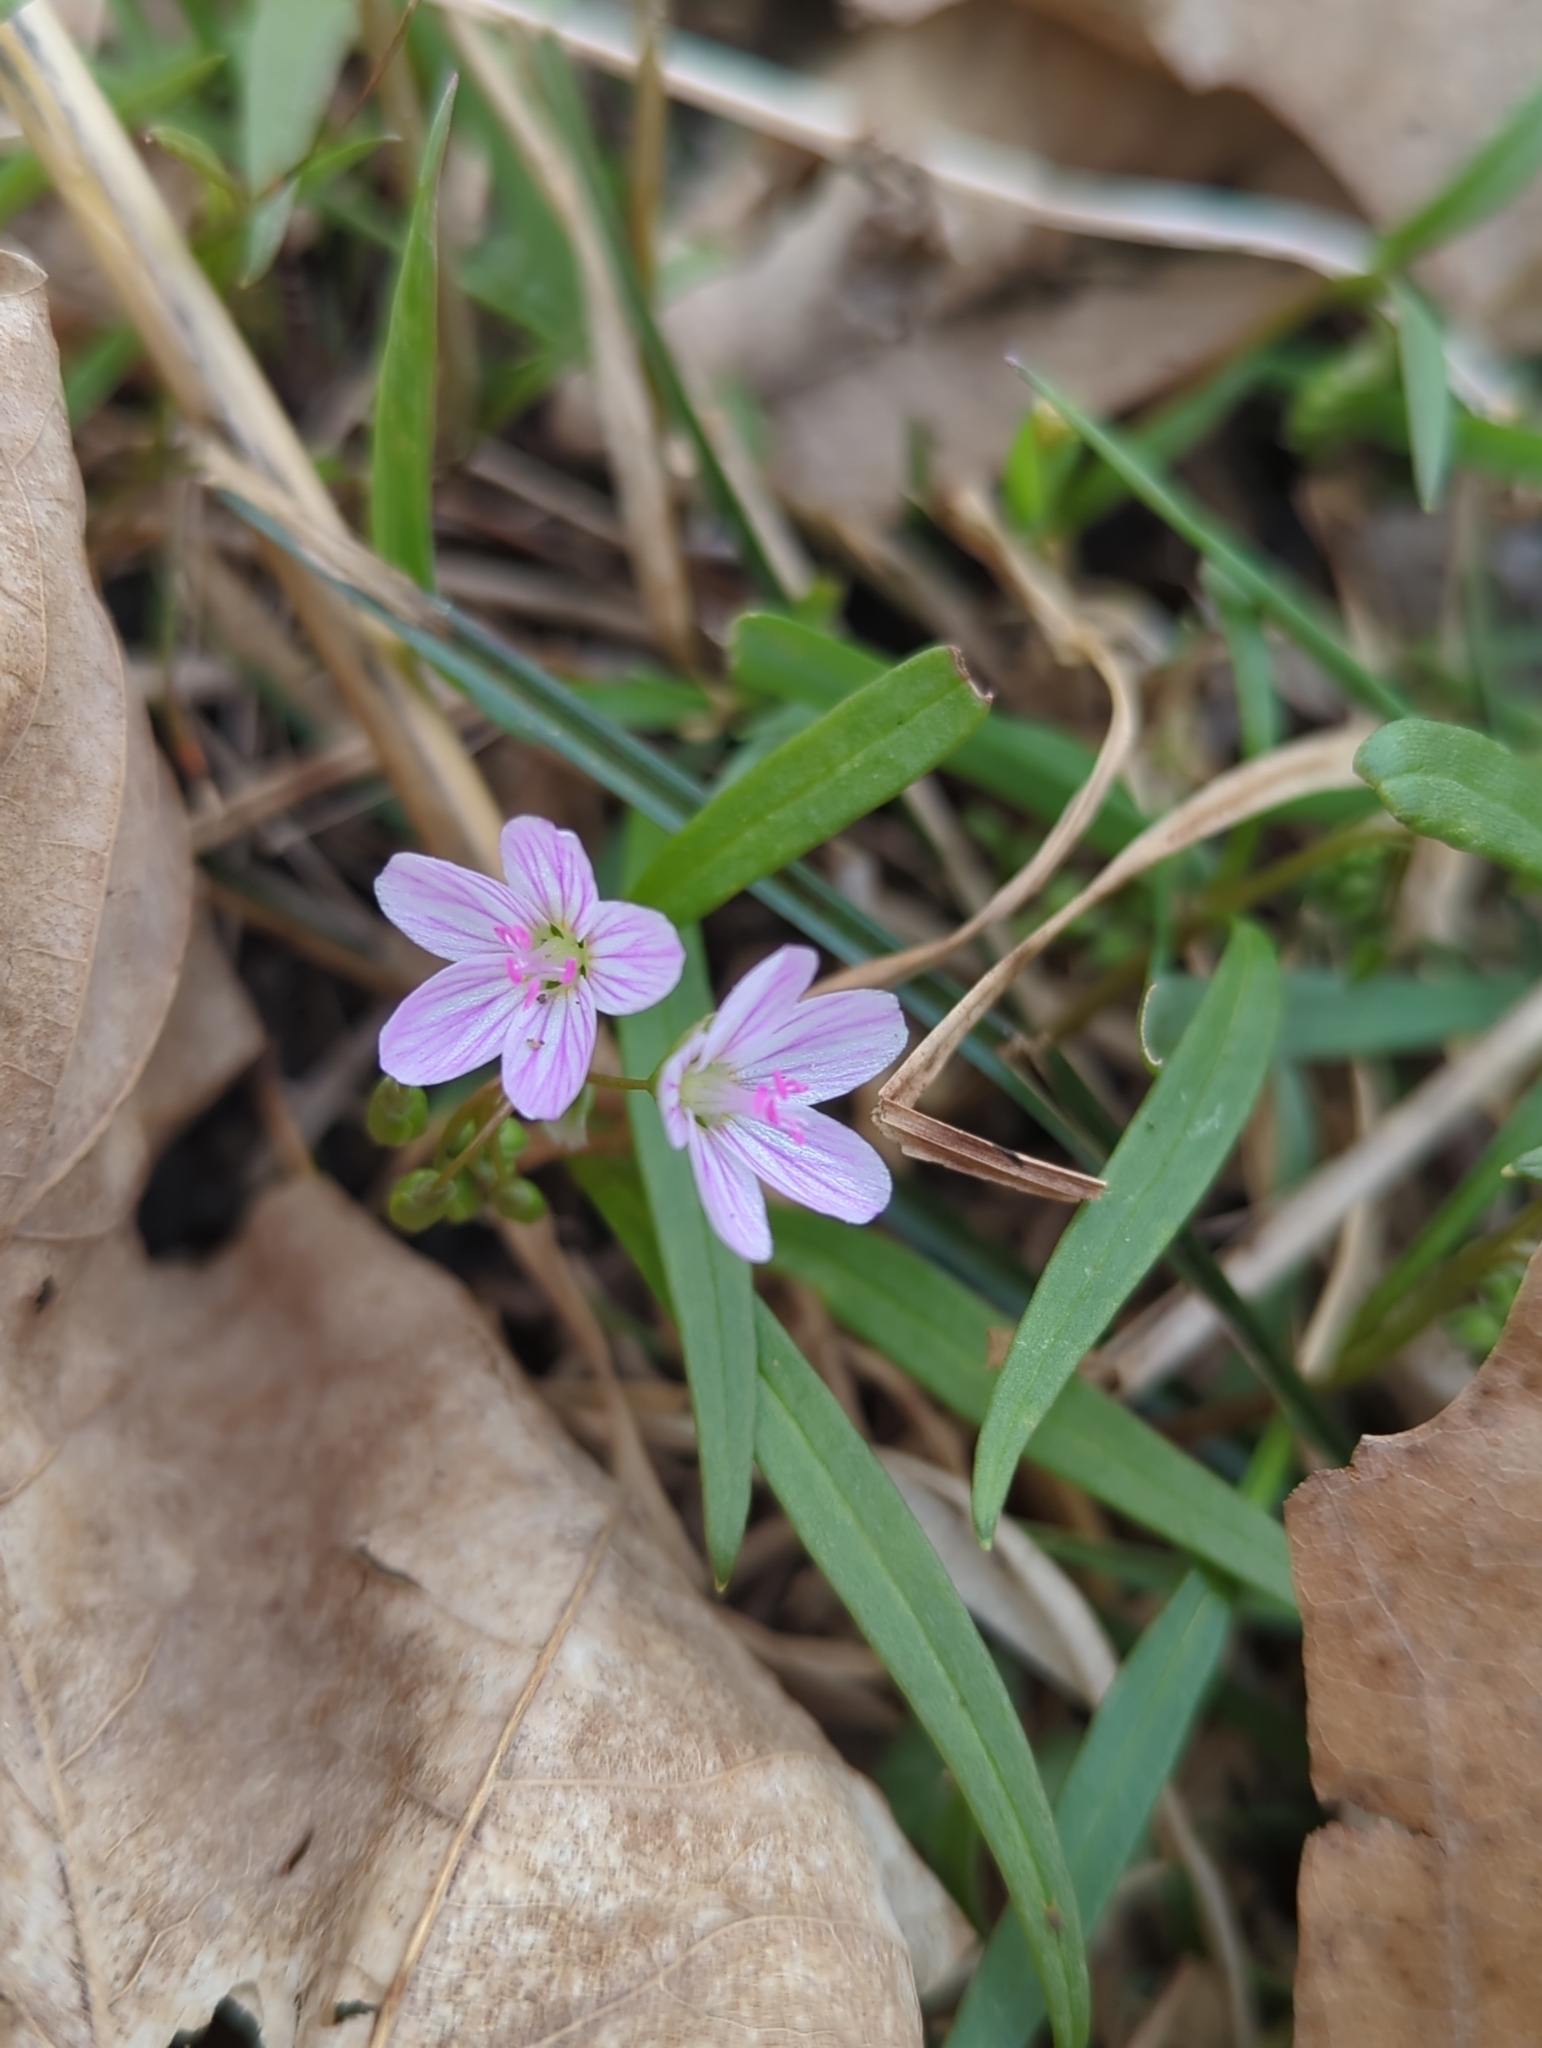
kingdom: Plantae
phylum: Tracheophyta
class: Magnoliopsida
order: Caryophyllales
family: Montiaceae
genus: Claytonia
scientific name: Claytonia virginica
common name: Virginia springbeauty
